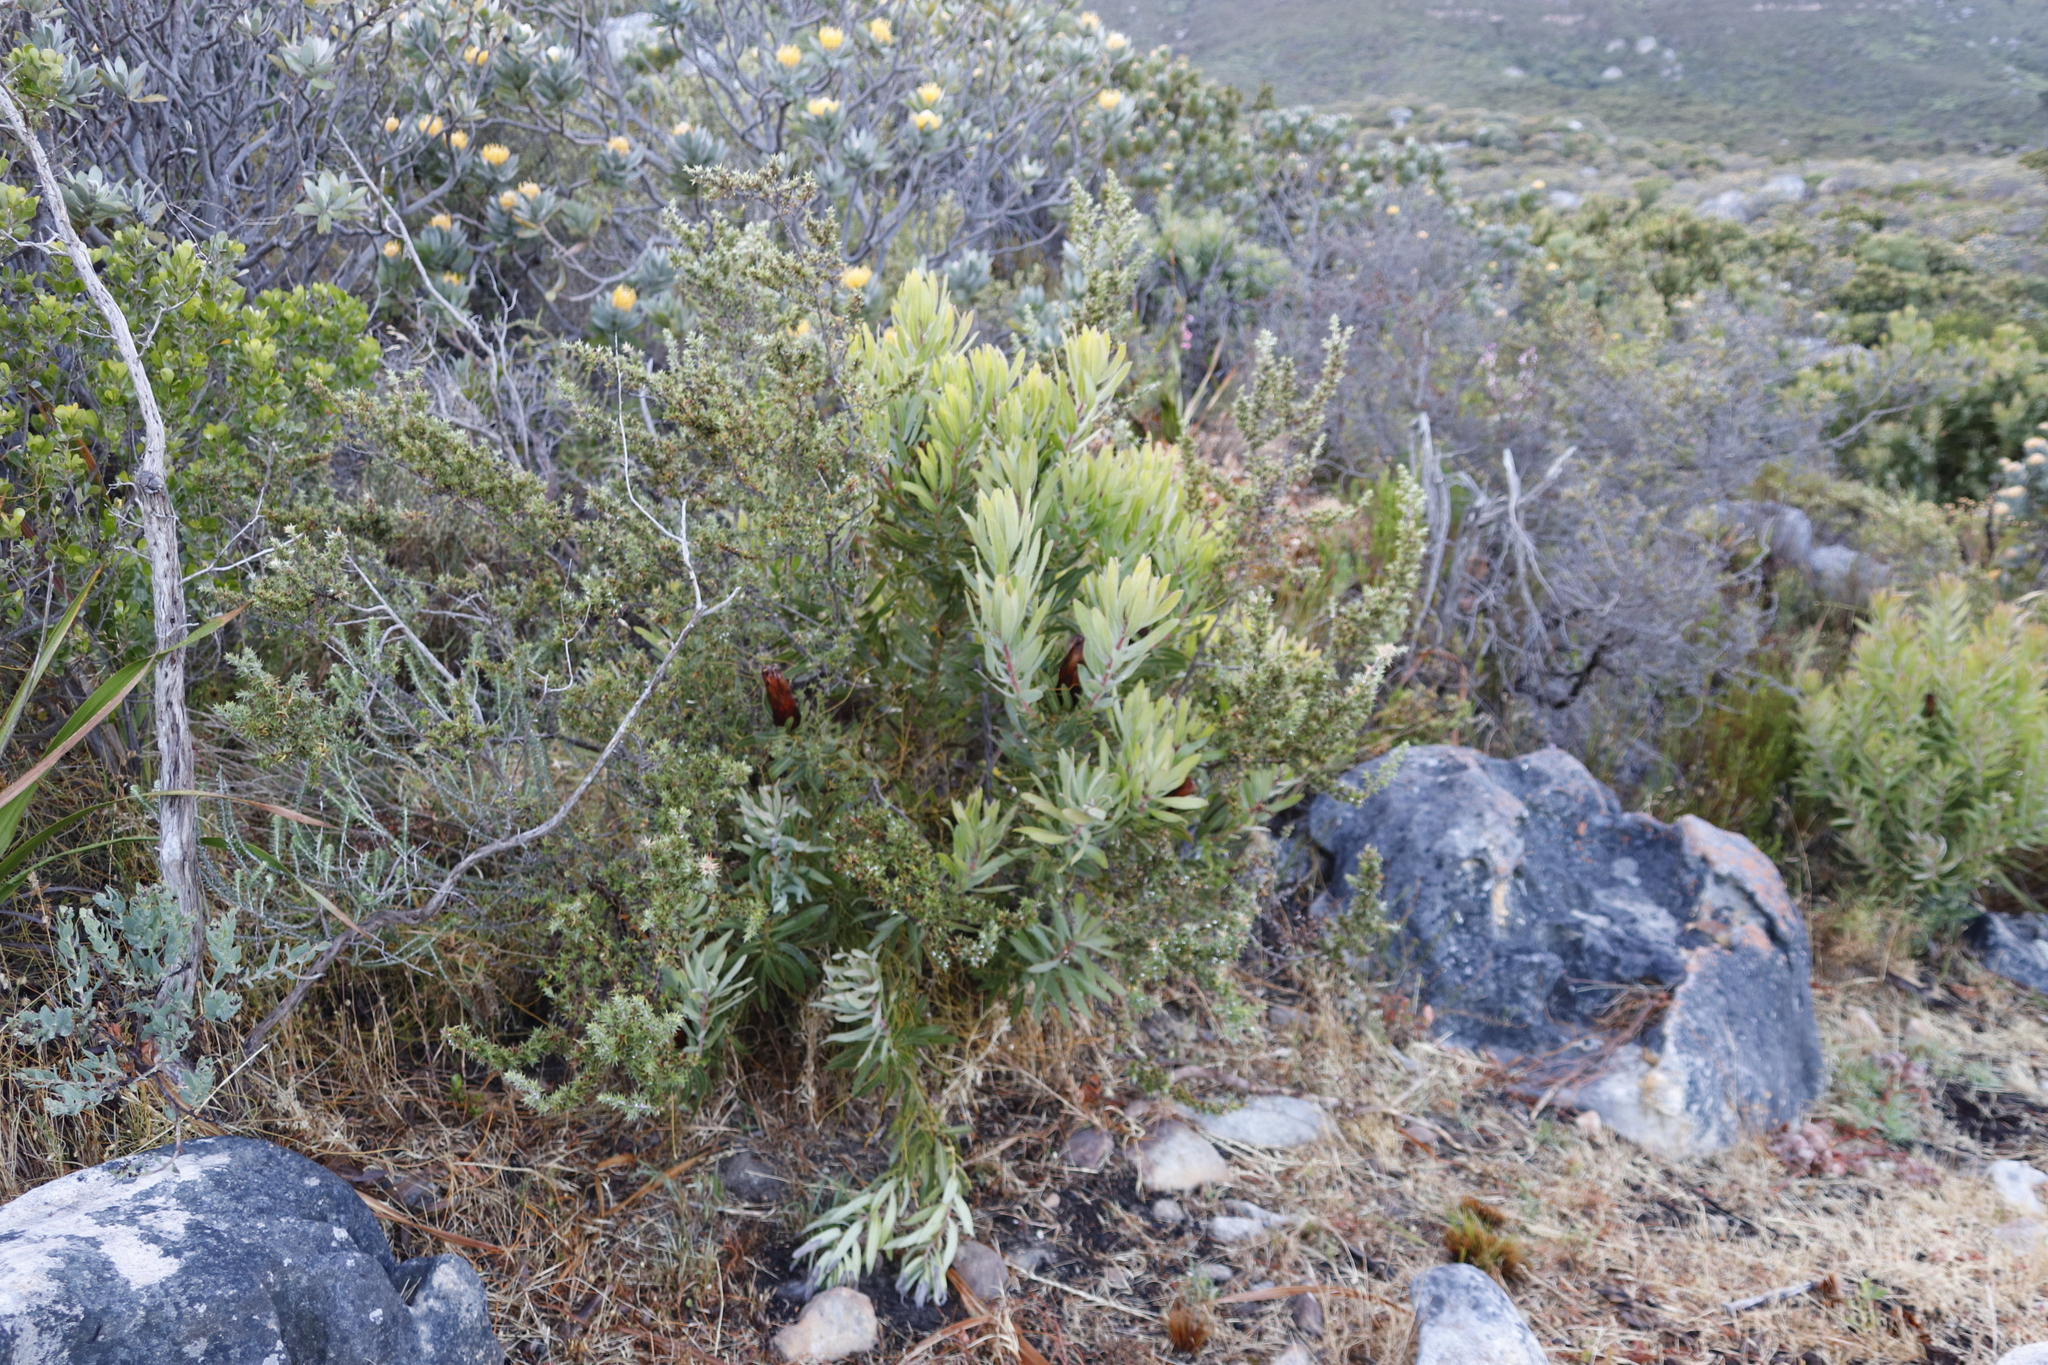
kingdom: Plantae
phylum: Tracheophyta
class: Magnoliopsida
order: Proteales
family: Proteaceae
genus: Protea
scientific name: Protea lepidocarpodendron
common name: Black-bearded protea
